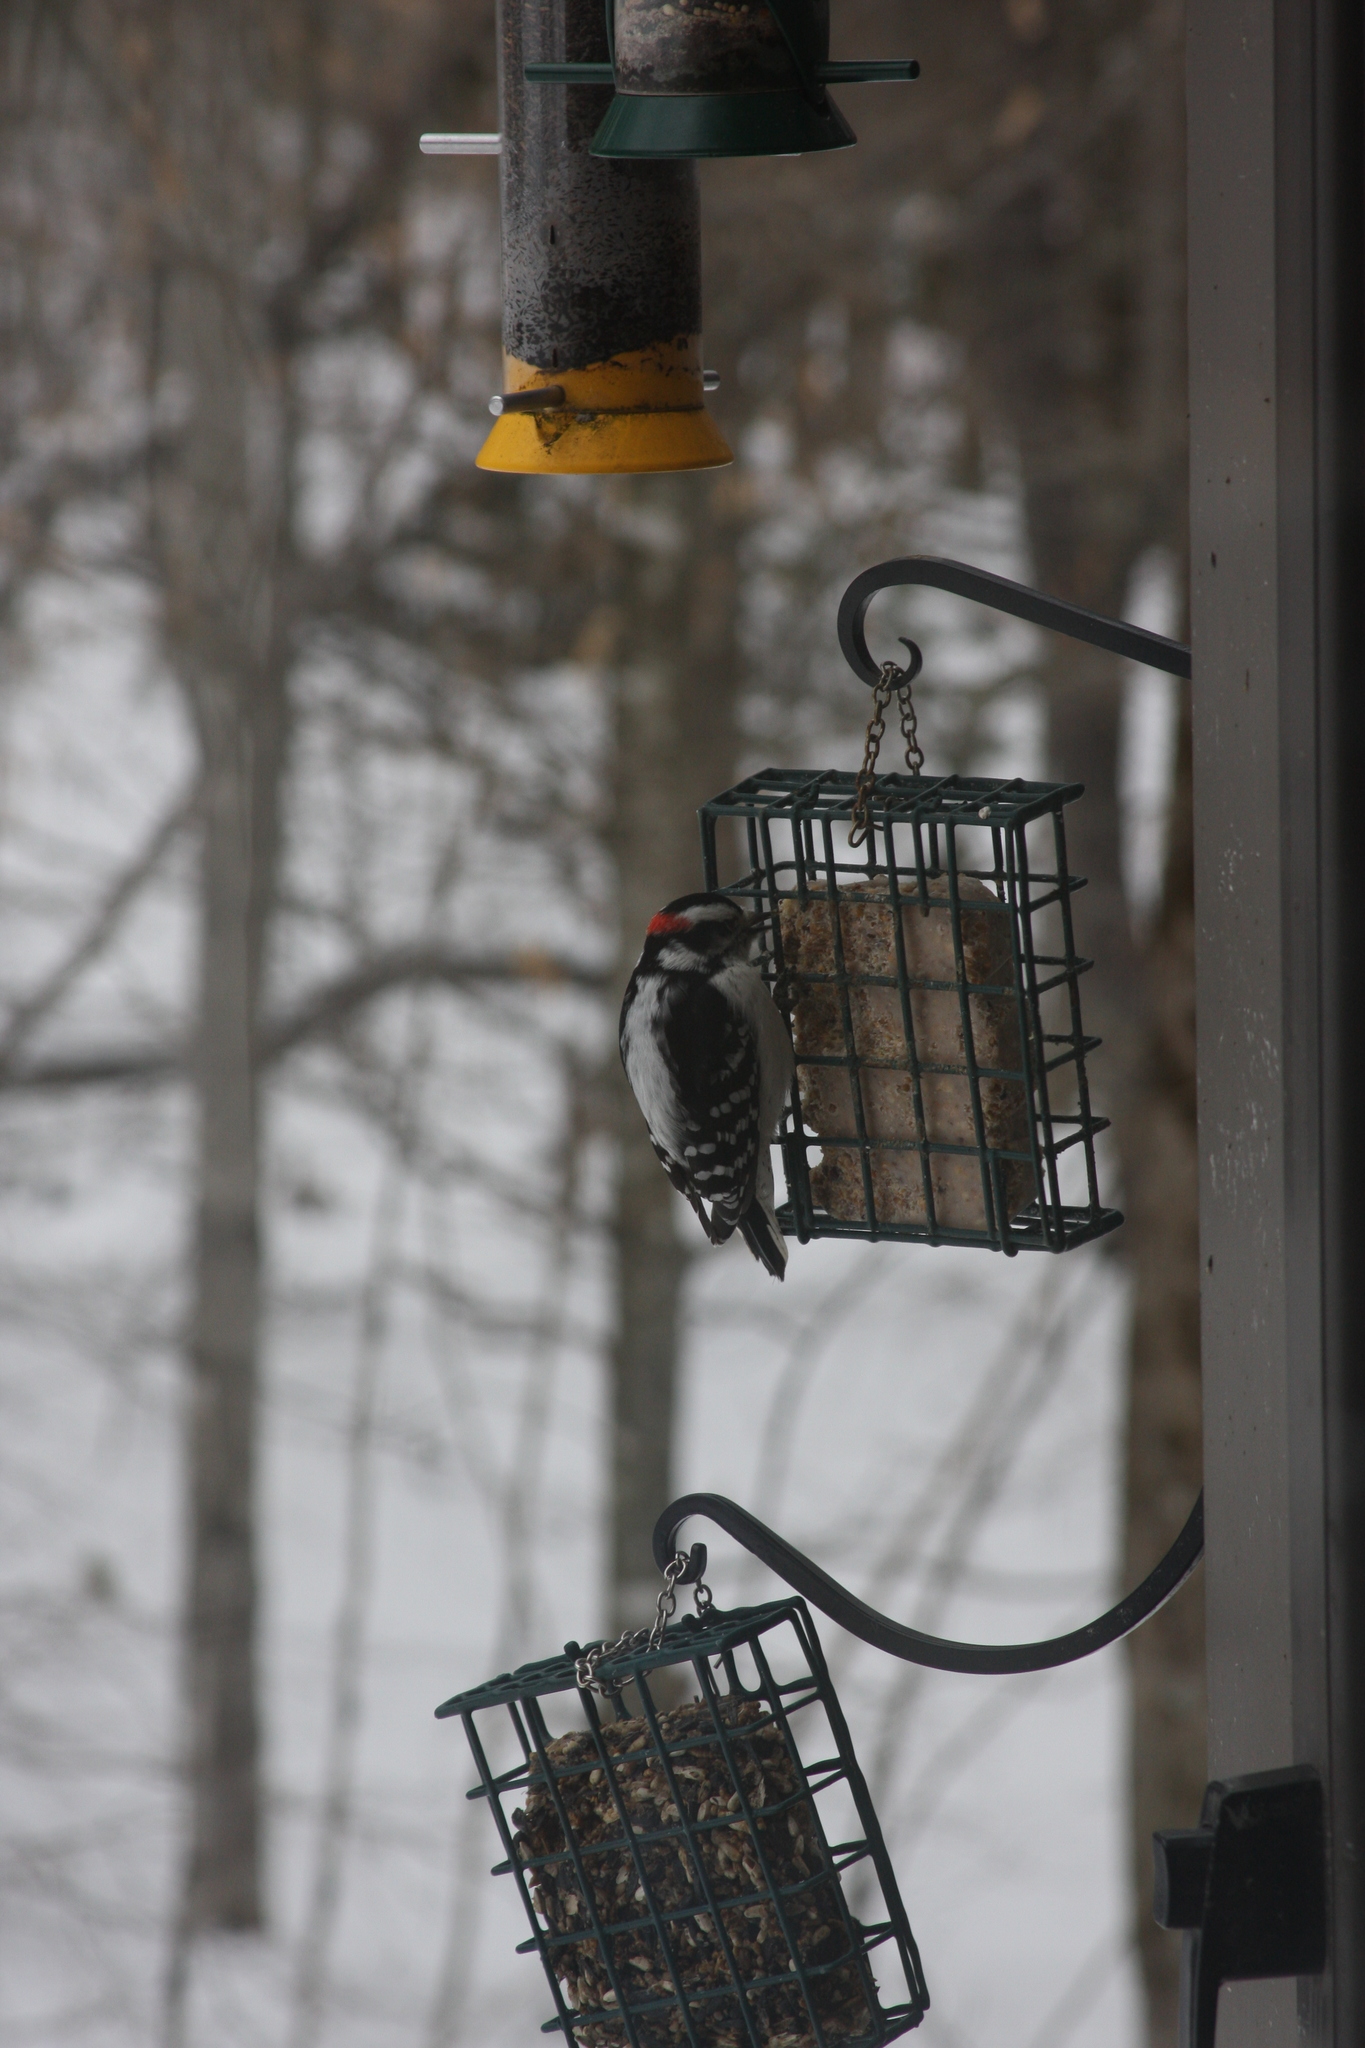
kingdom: Animalia
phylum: Chordata
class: Aves
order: Piciformes
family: Picidae
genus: Dryobates
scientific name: Dryobates pubescens
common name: Downy woodpecker
